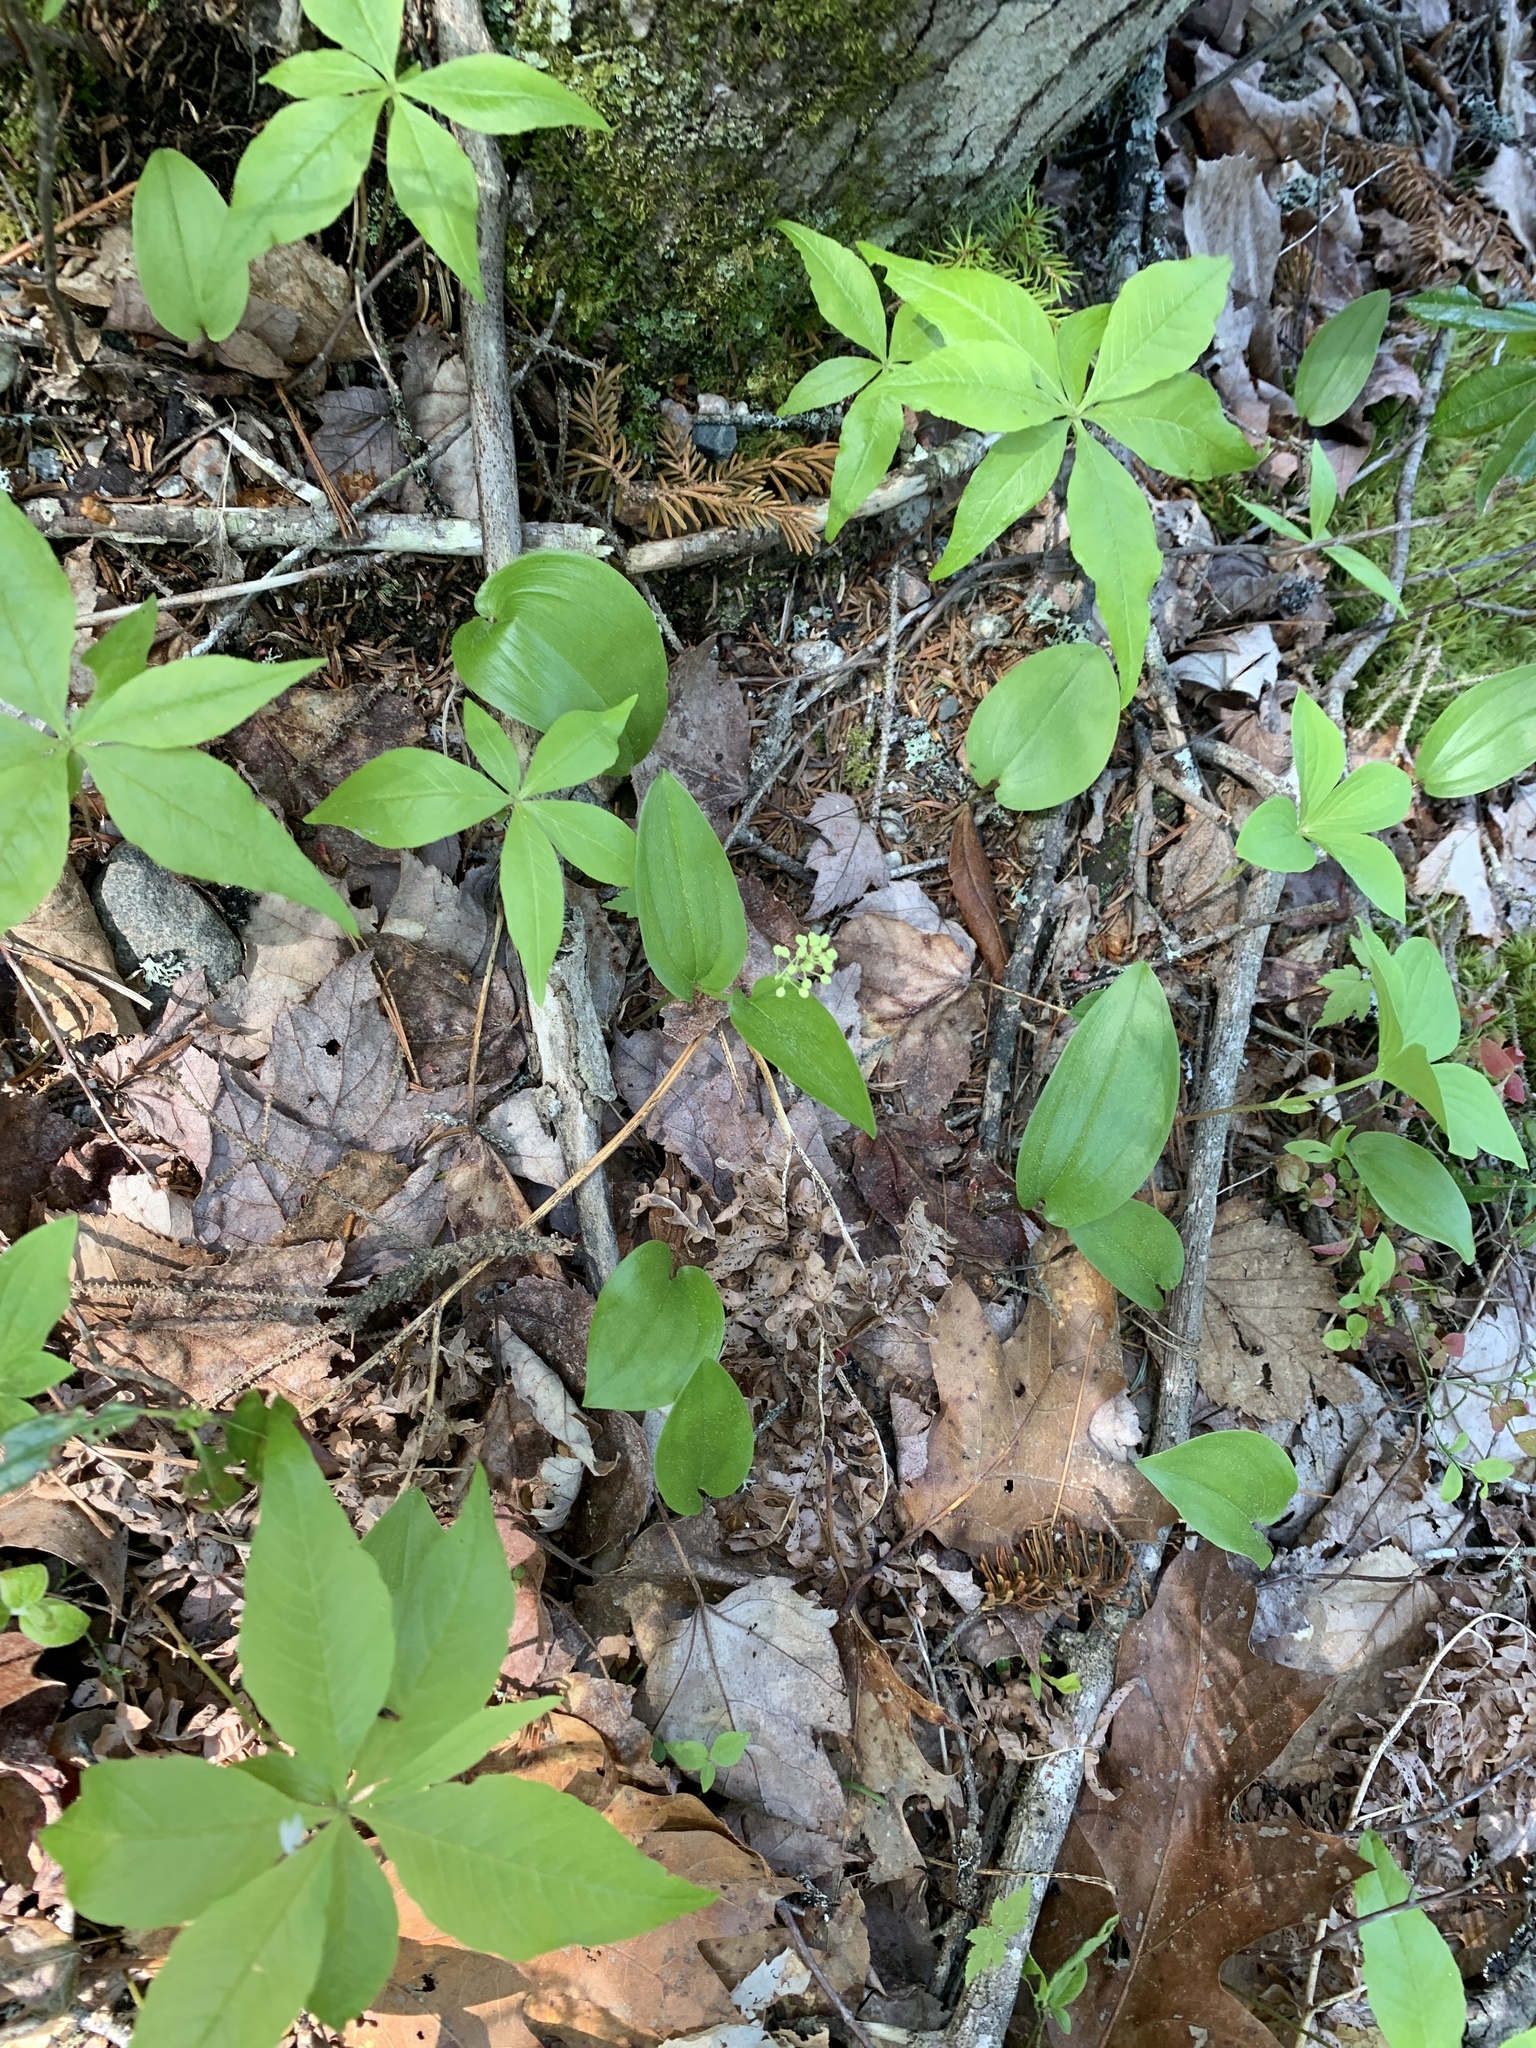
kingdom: Plantae
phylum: Tracheophyta
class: Liliopsida
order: Asparagales
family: Asparagaceae
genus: Maianthemum
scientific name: Maianthemum canadense
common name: False lily-of-the-valley
